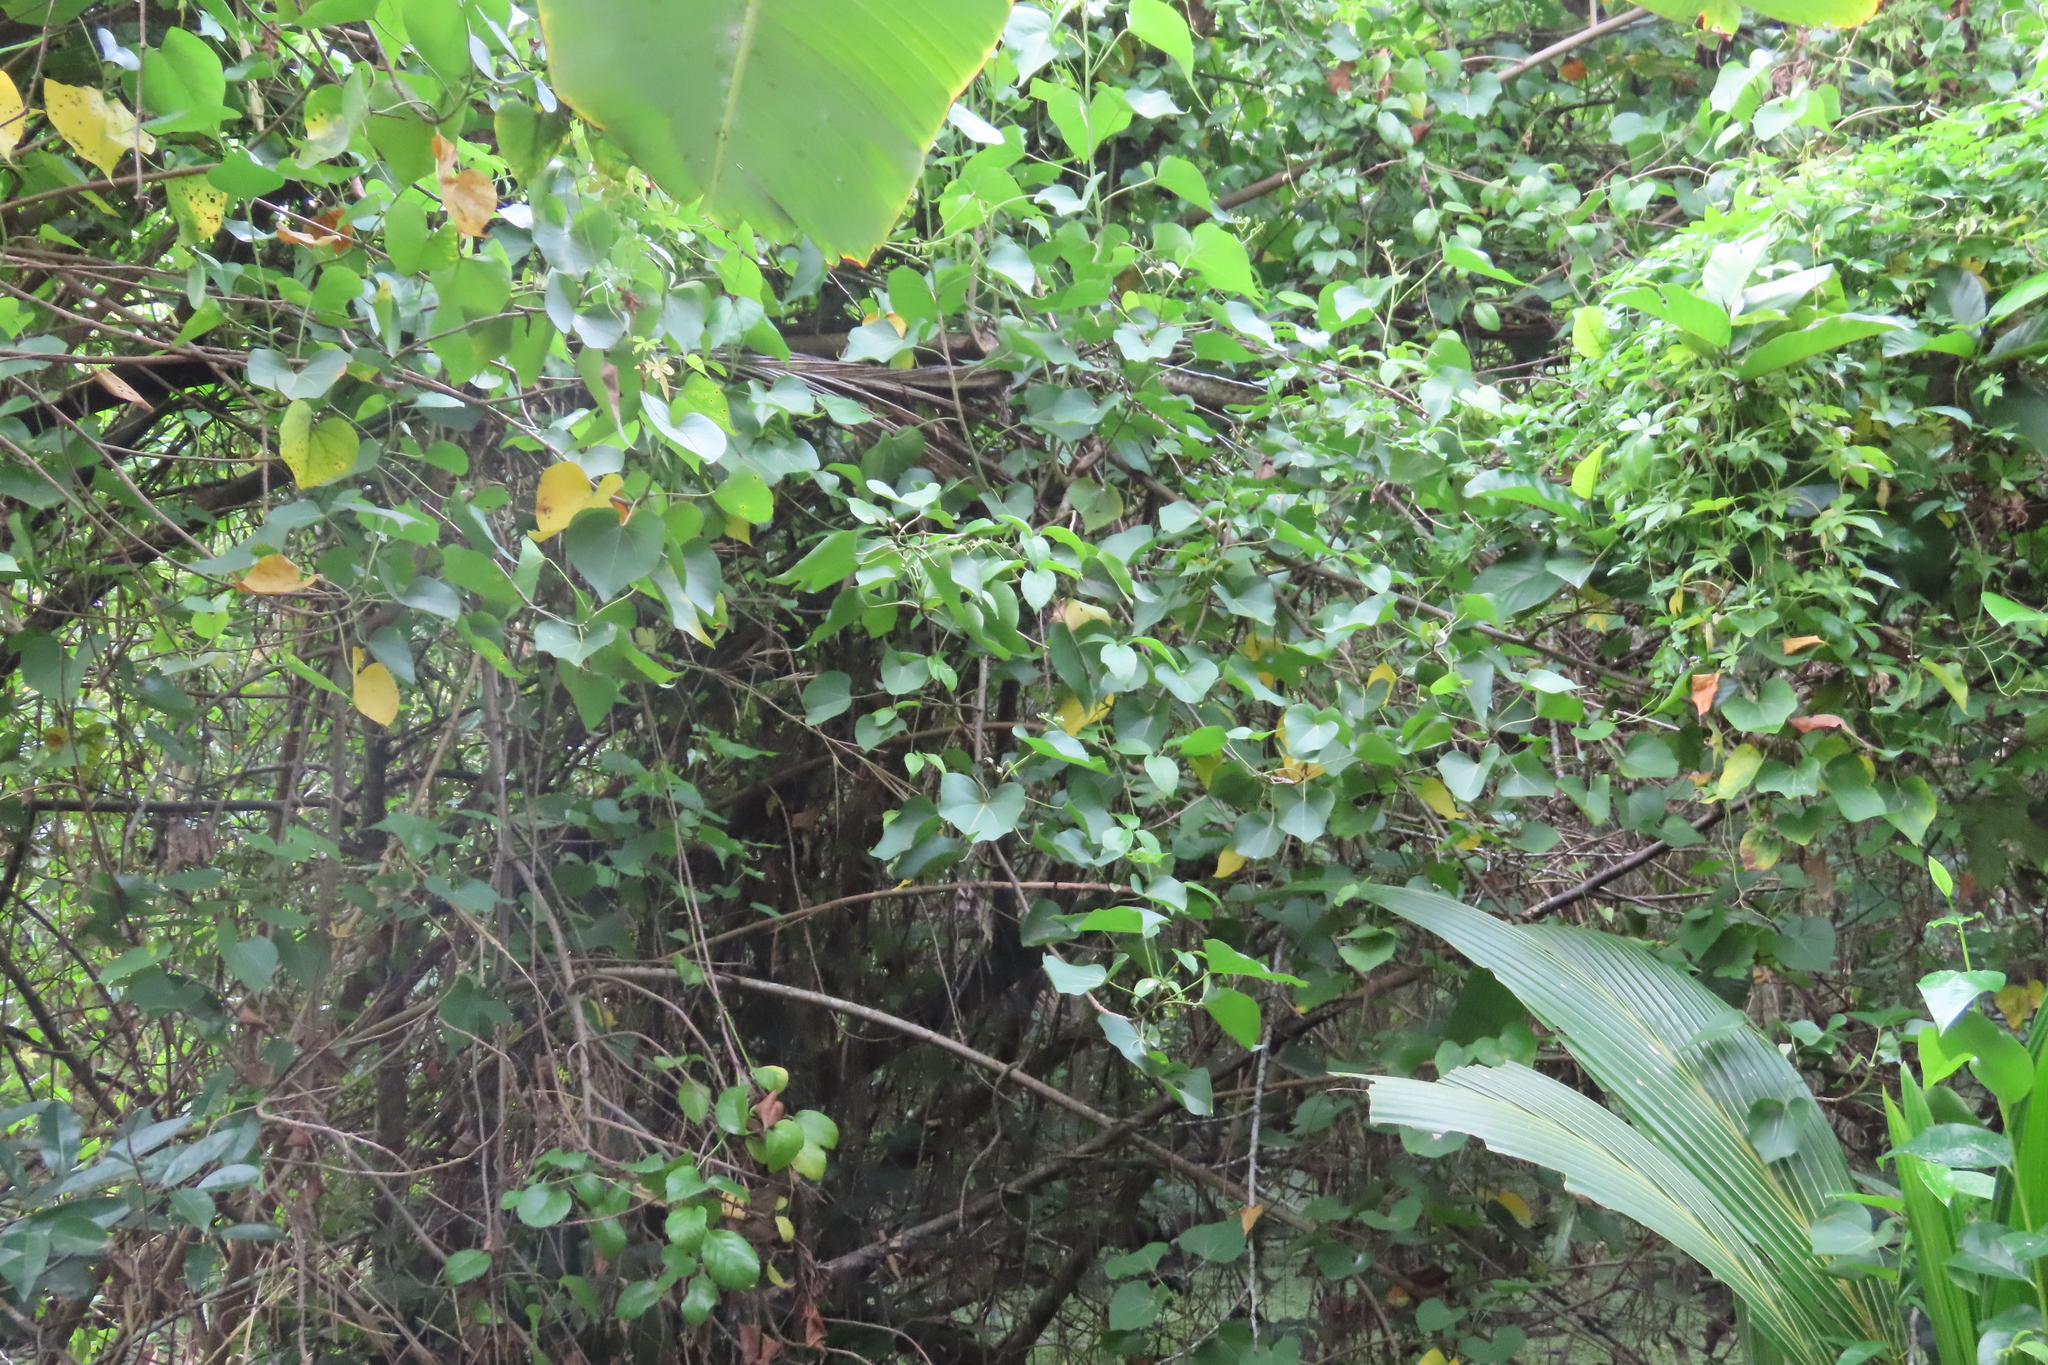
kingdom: Plantae
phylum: Tracheophyta
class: Magnoliopsida
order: Malvales
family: Malvaceae
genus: Thespesia
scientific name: Thespesia populnea
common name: Seaside mahoe
